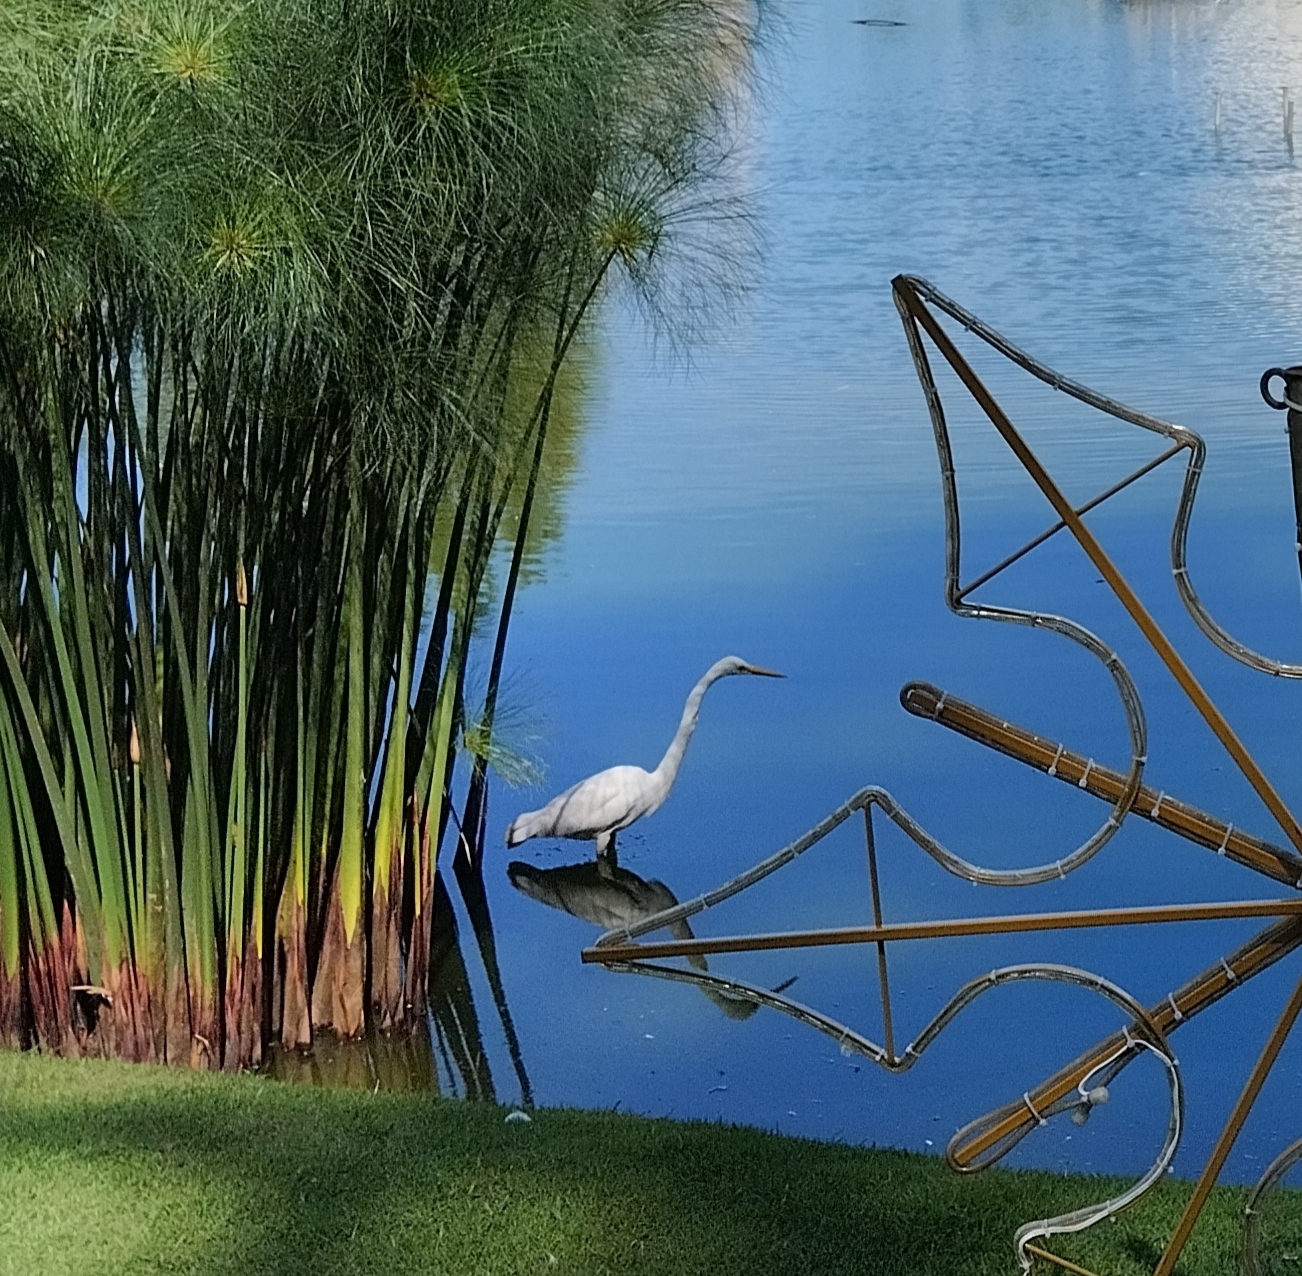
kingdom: Animalia
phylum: Chordata
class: Aves
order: Pelecaniformes
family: Ardeidae
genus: Ardea
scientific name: Ardea alba
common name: Great egret
